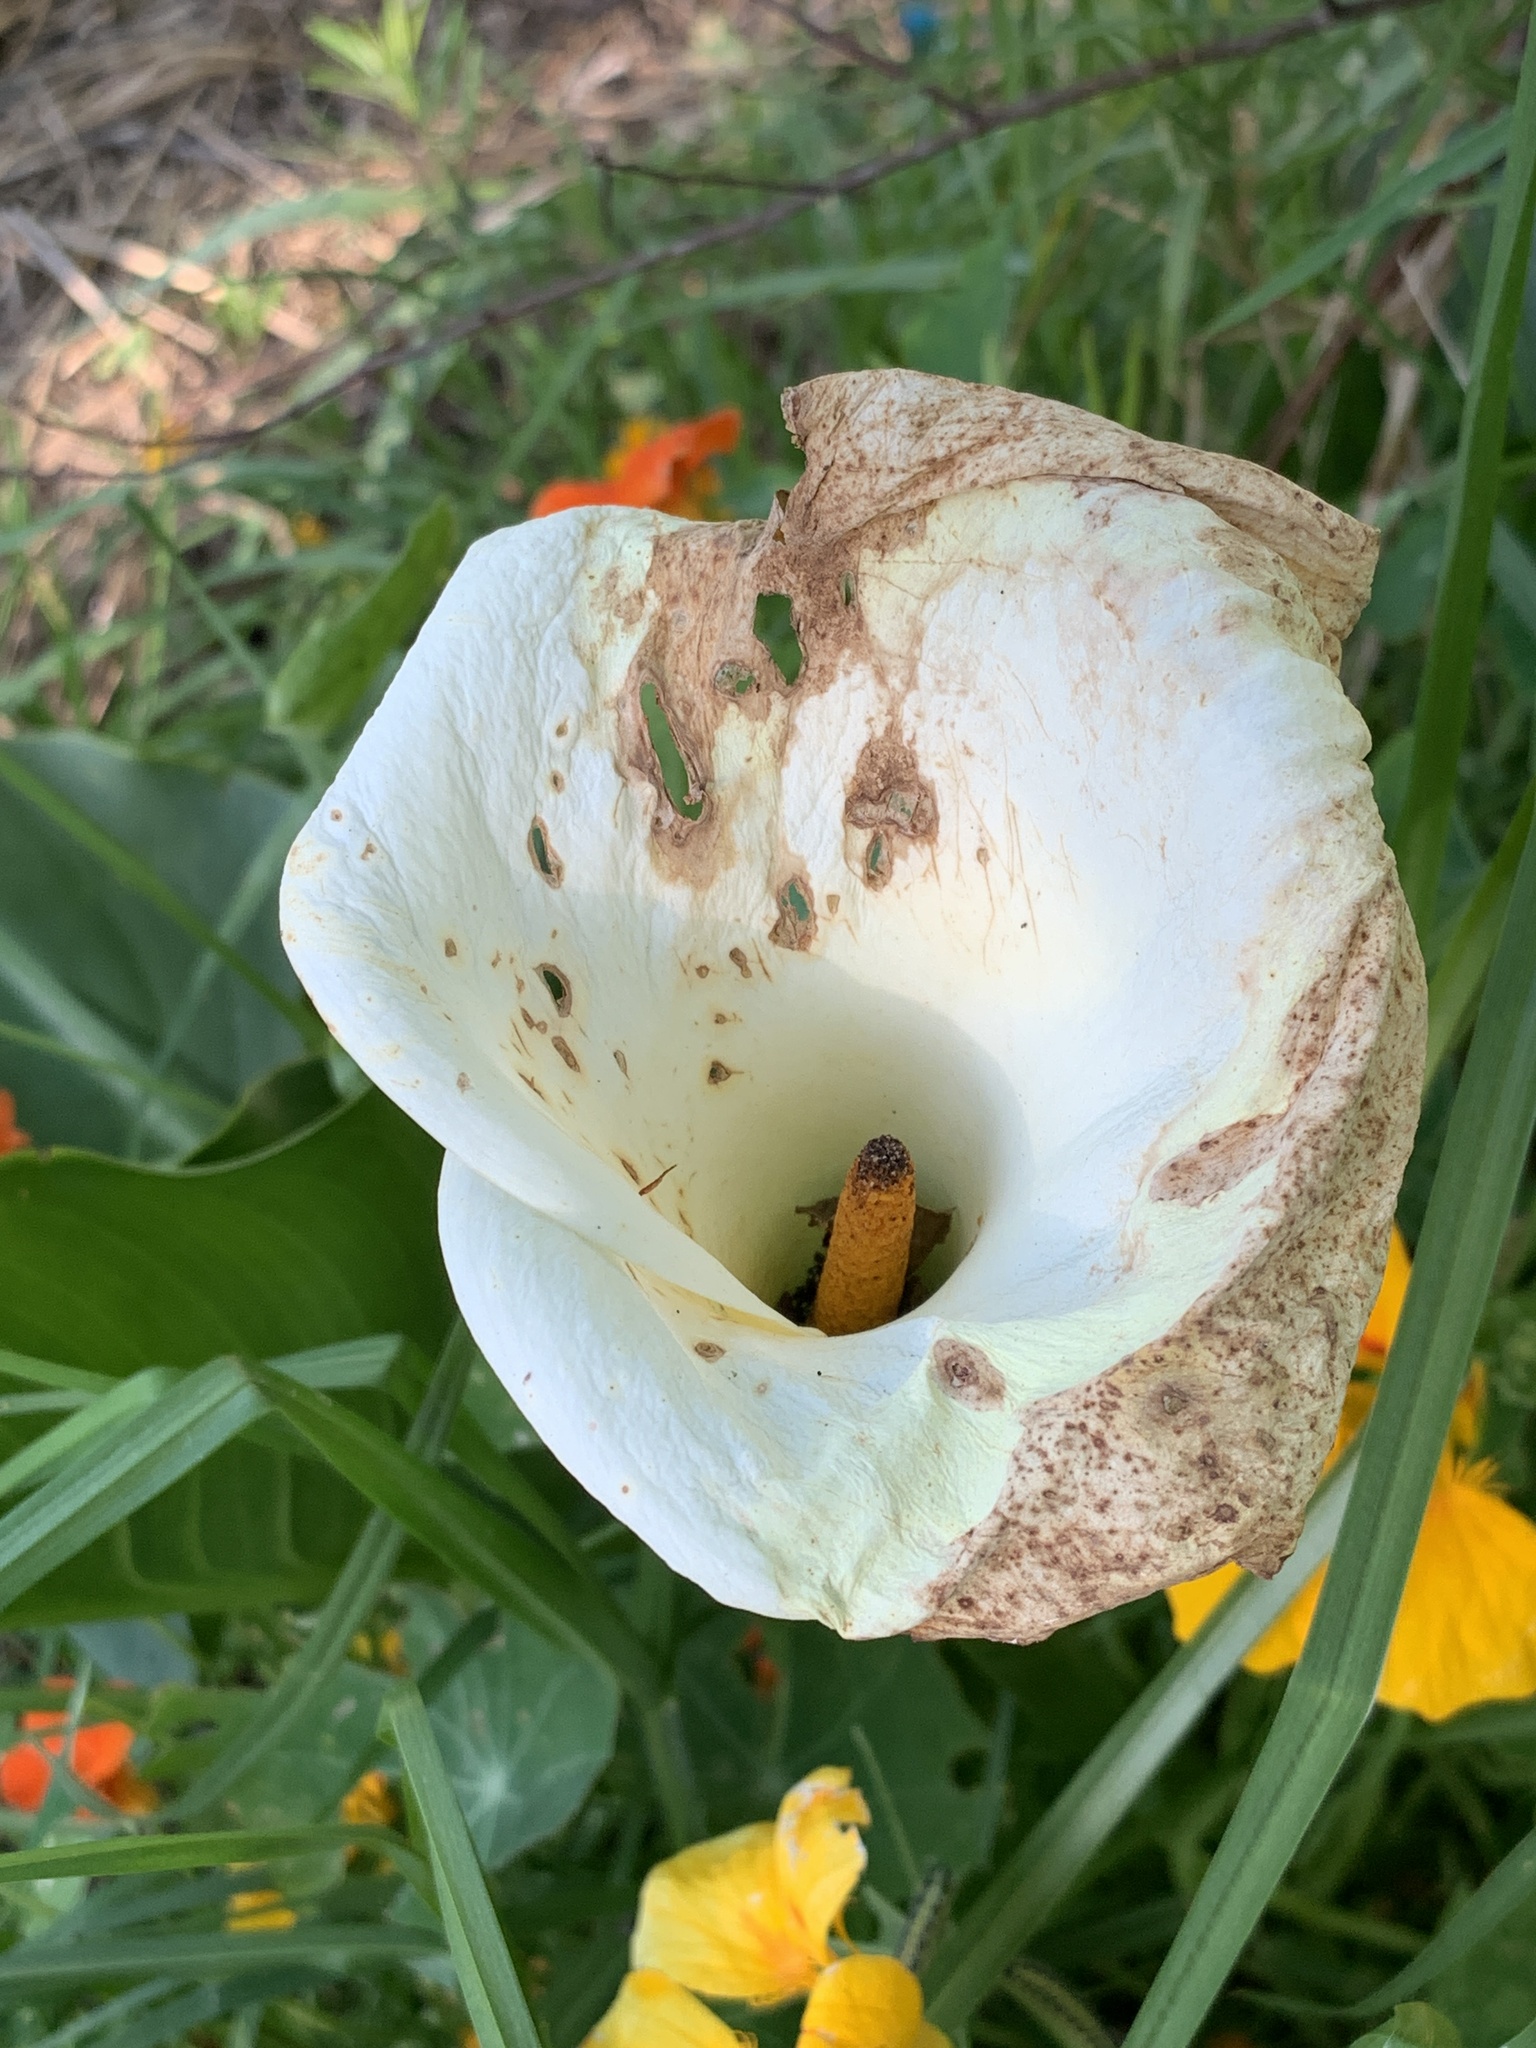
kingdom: Plantae
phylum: Tracheophyta
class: Liliopsida
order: Alismatales
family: Araceae
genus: Zantedeschia
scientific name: Zantedeschia aethiopica
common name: Altar-lily
